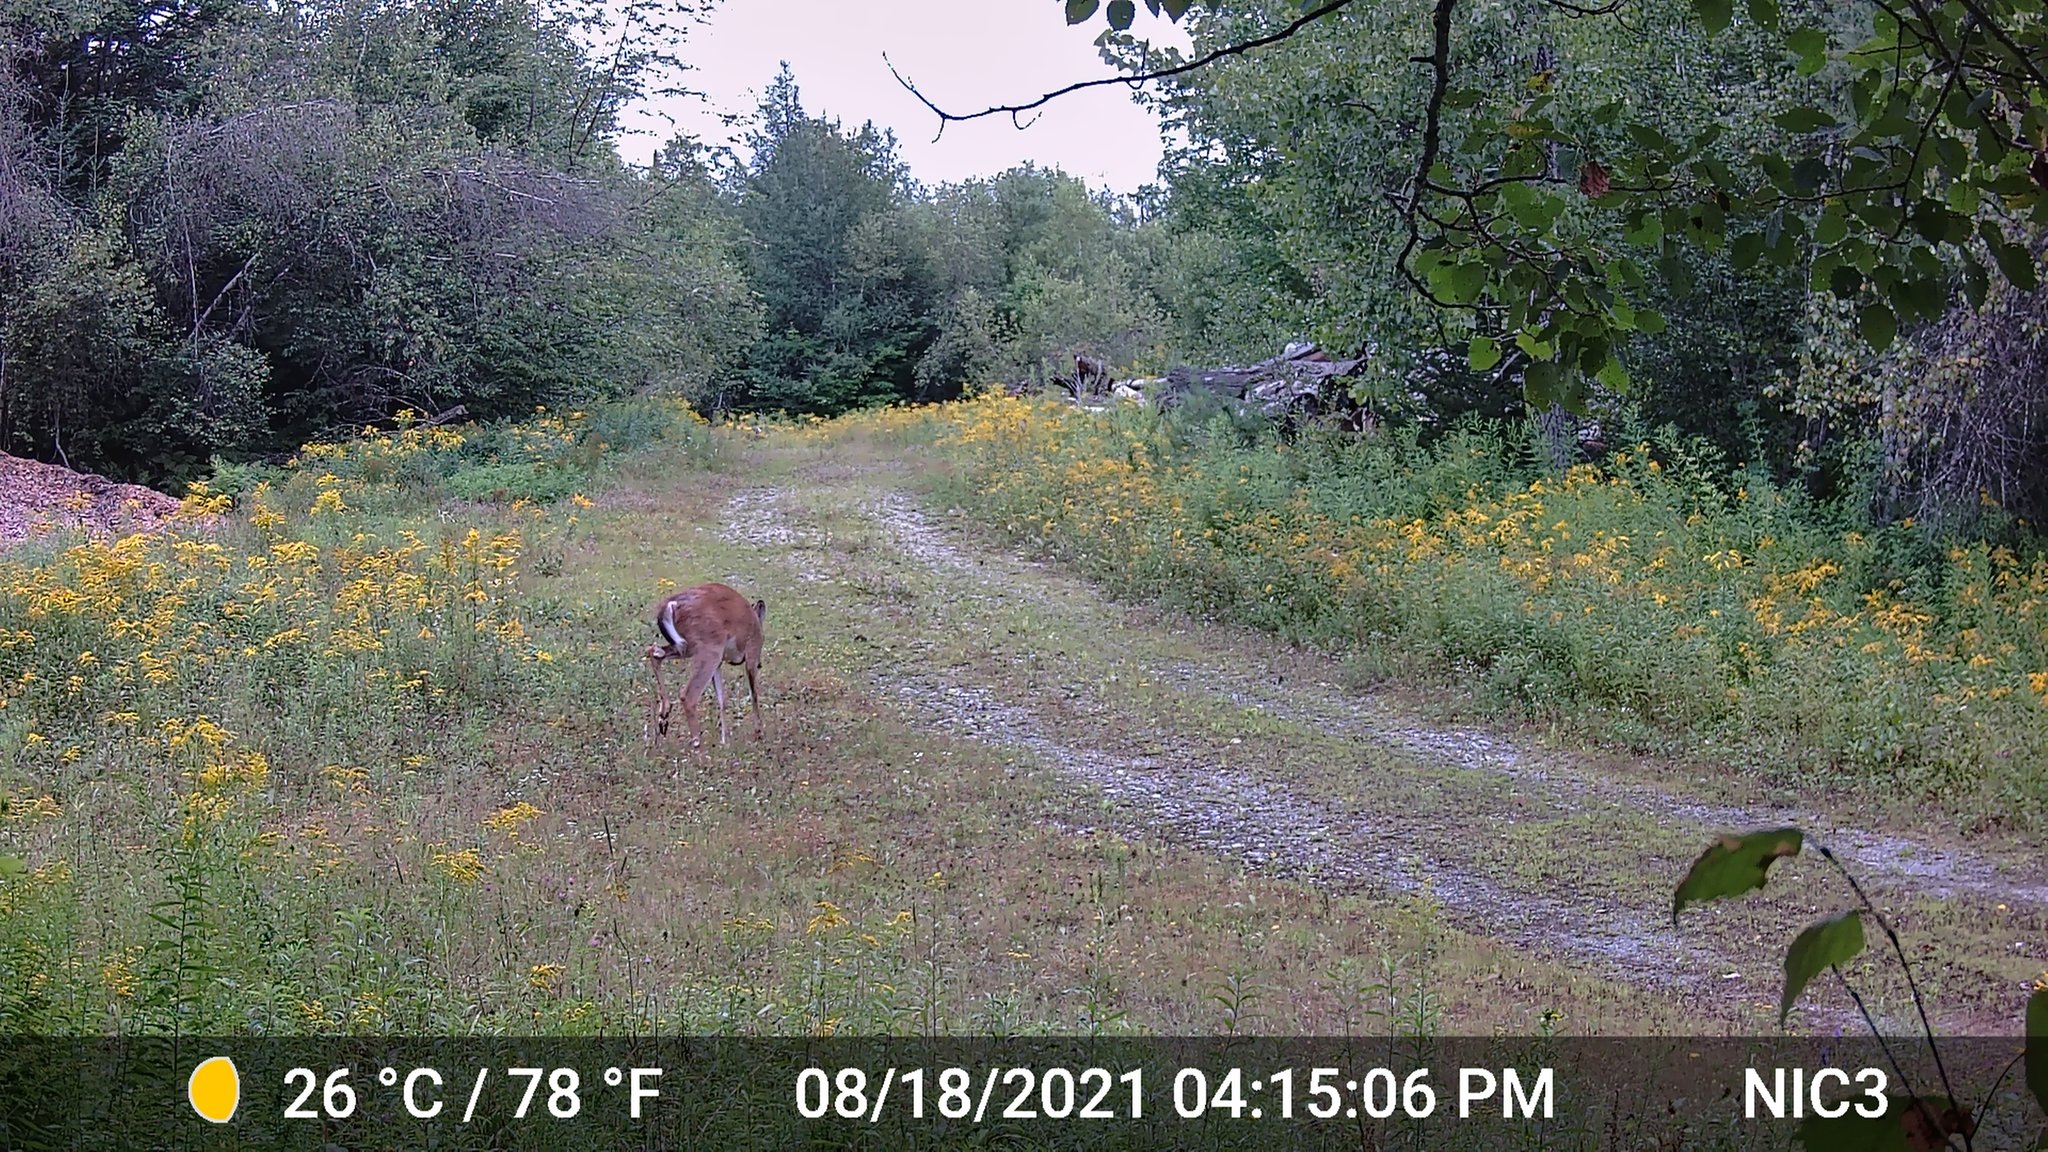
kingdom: Animalia
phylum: Chordata
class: Mammalia
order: Artiodactyla
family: Cervidae
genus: Odocoileus
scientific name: Odocoileus virginianus
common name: White-tailed deer
